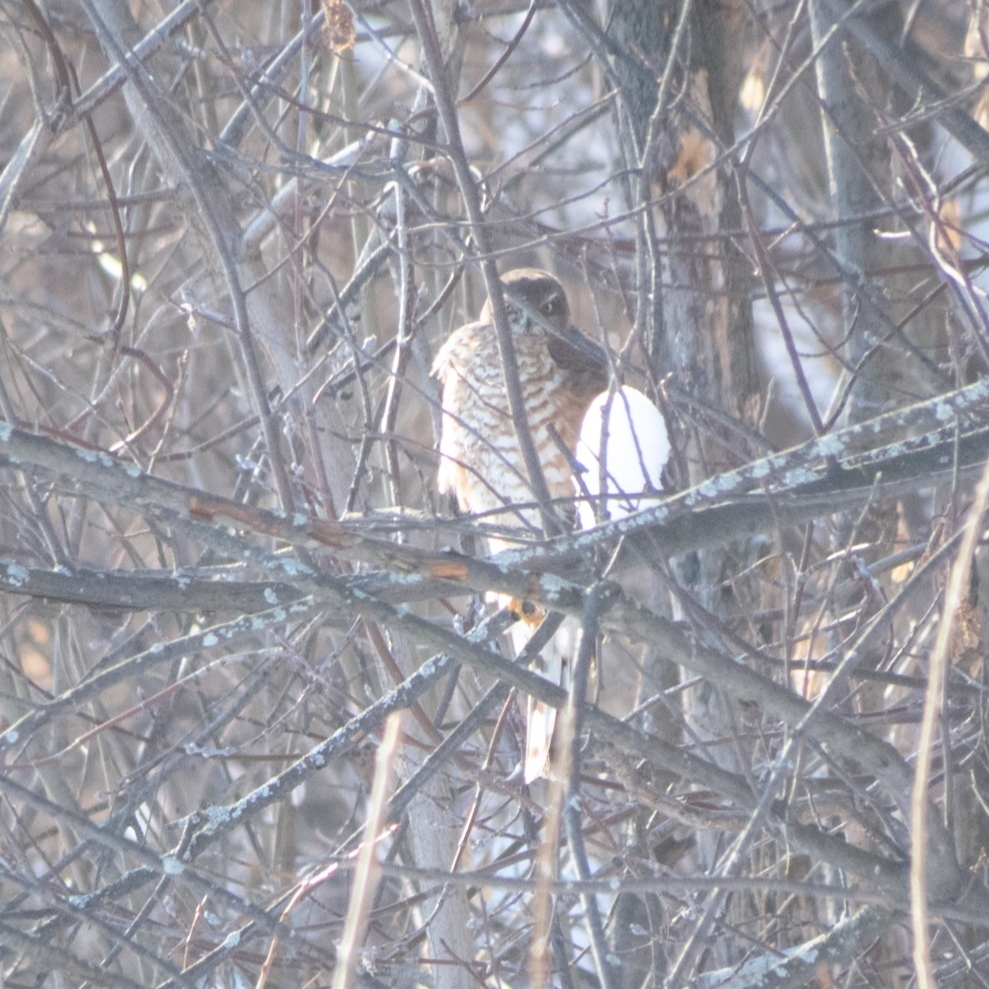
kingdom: Animalia
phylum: Chordata
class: Aves
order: Accipitriformes
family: Accipitridae
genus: Accipiter
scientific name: Accipiter nisus
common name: Eurasian sparrowhawk
